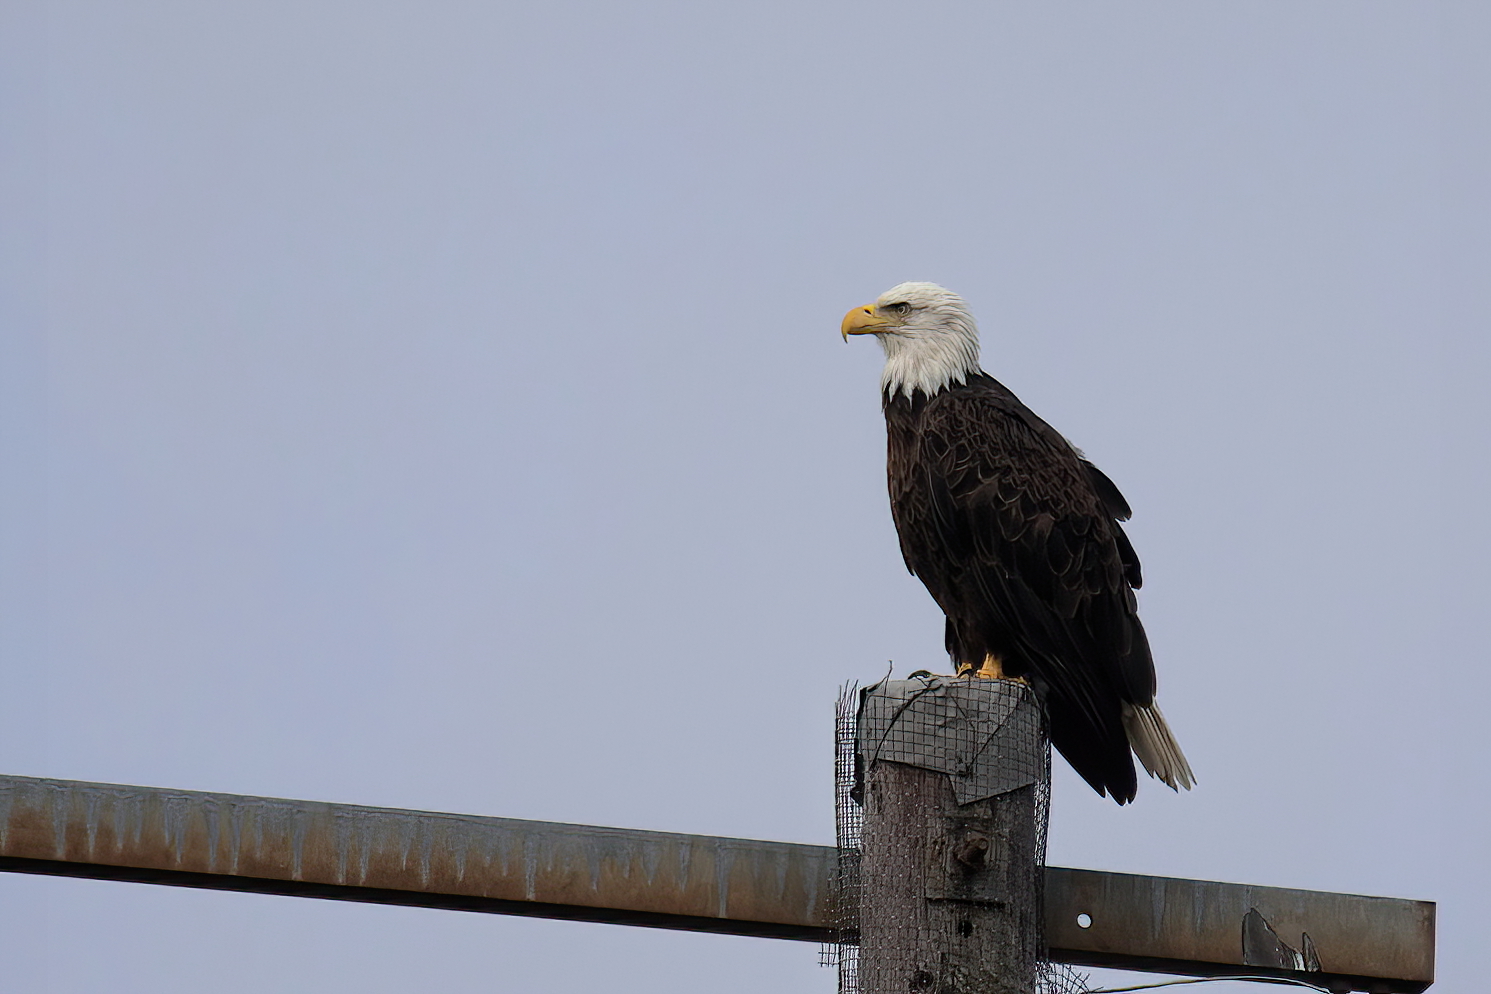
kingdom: Animalia
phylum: Chordata
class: Aves
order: Accipitriformes
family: Accipitridae
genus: Haliaeetus
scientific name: Haliaeetus leucocephalus
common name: Bald eagle
